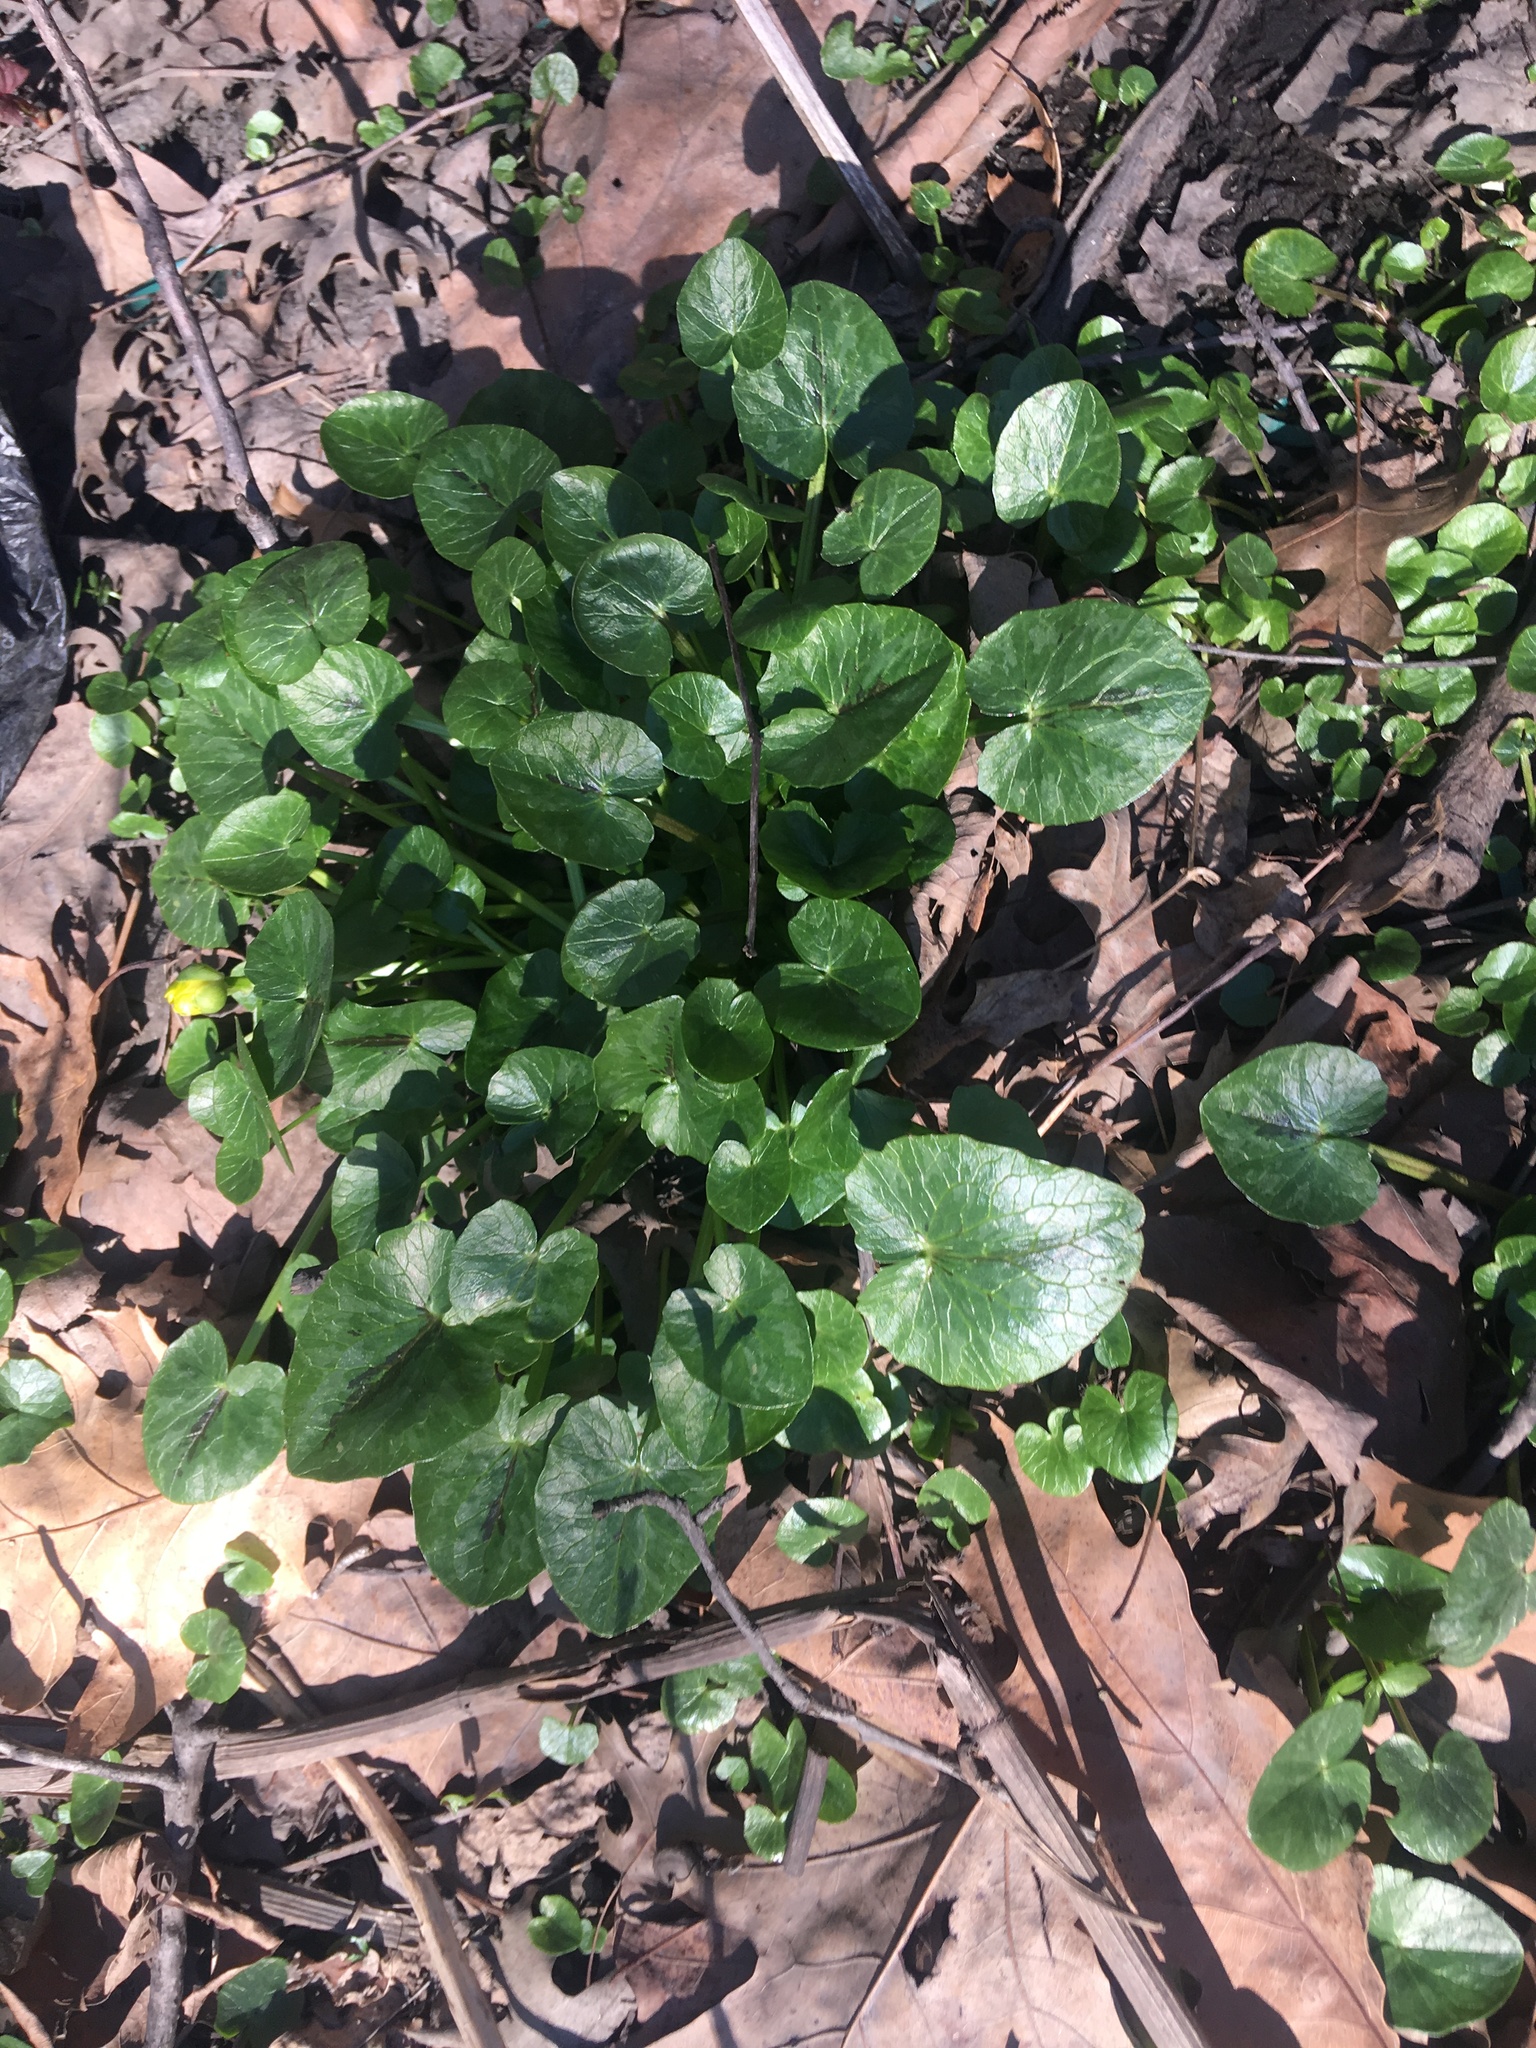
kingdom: Plantae
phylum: Tracheophyta
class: Magnoliopsida
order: Ranunculales
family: Ranunculaceae
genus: Ficaria
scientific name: Ficaria verna
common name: Lesser celandine
